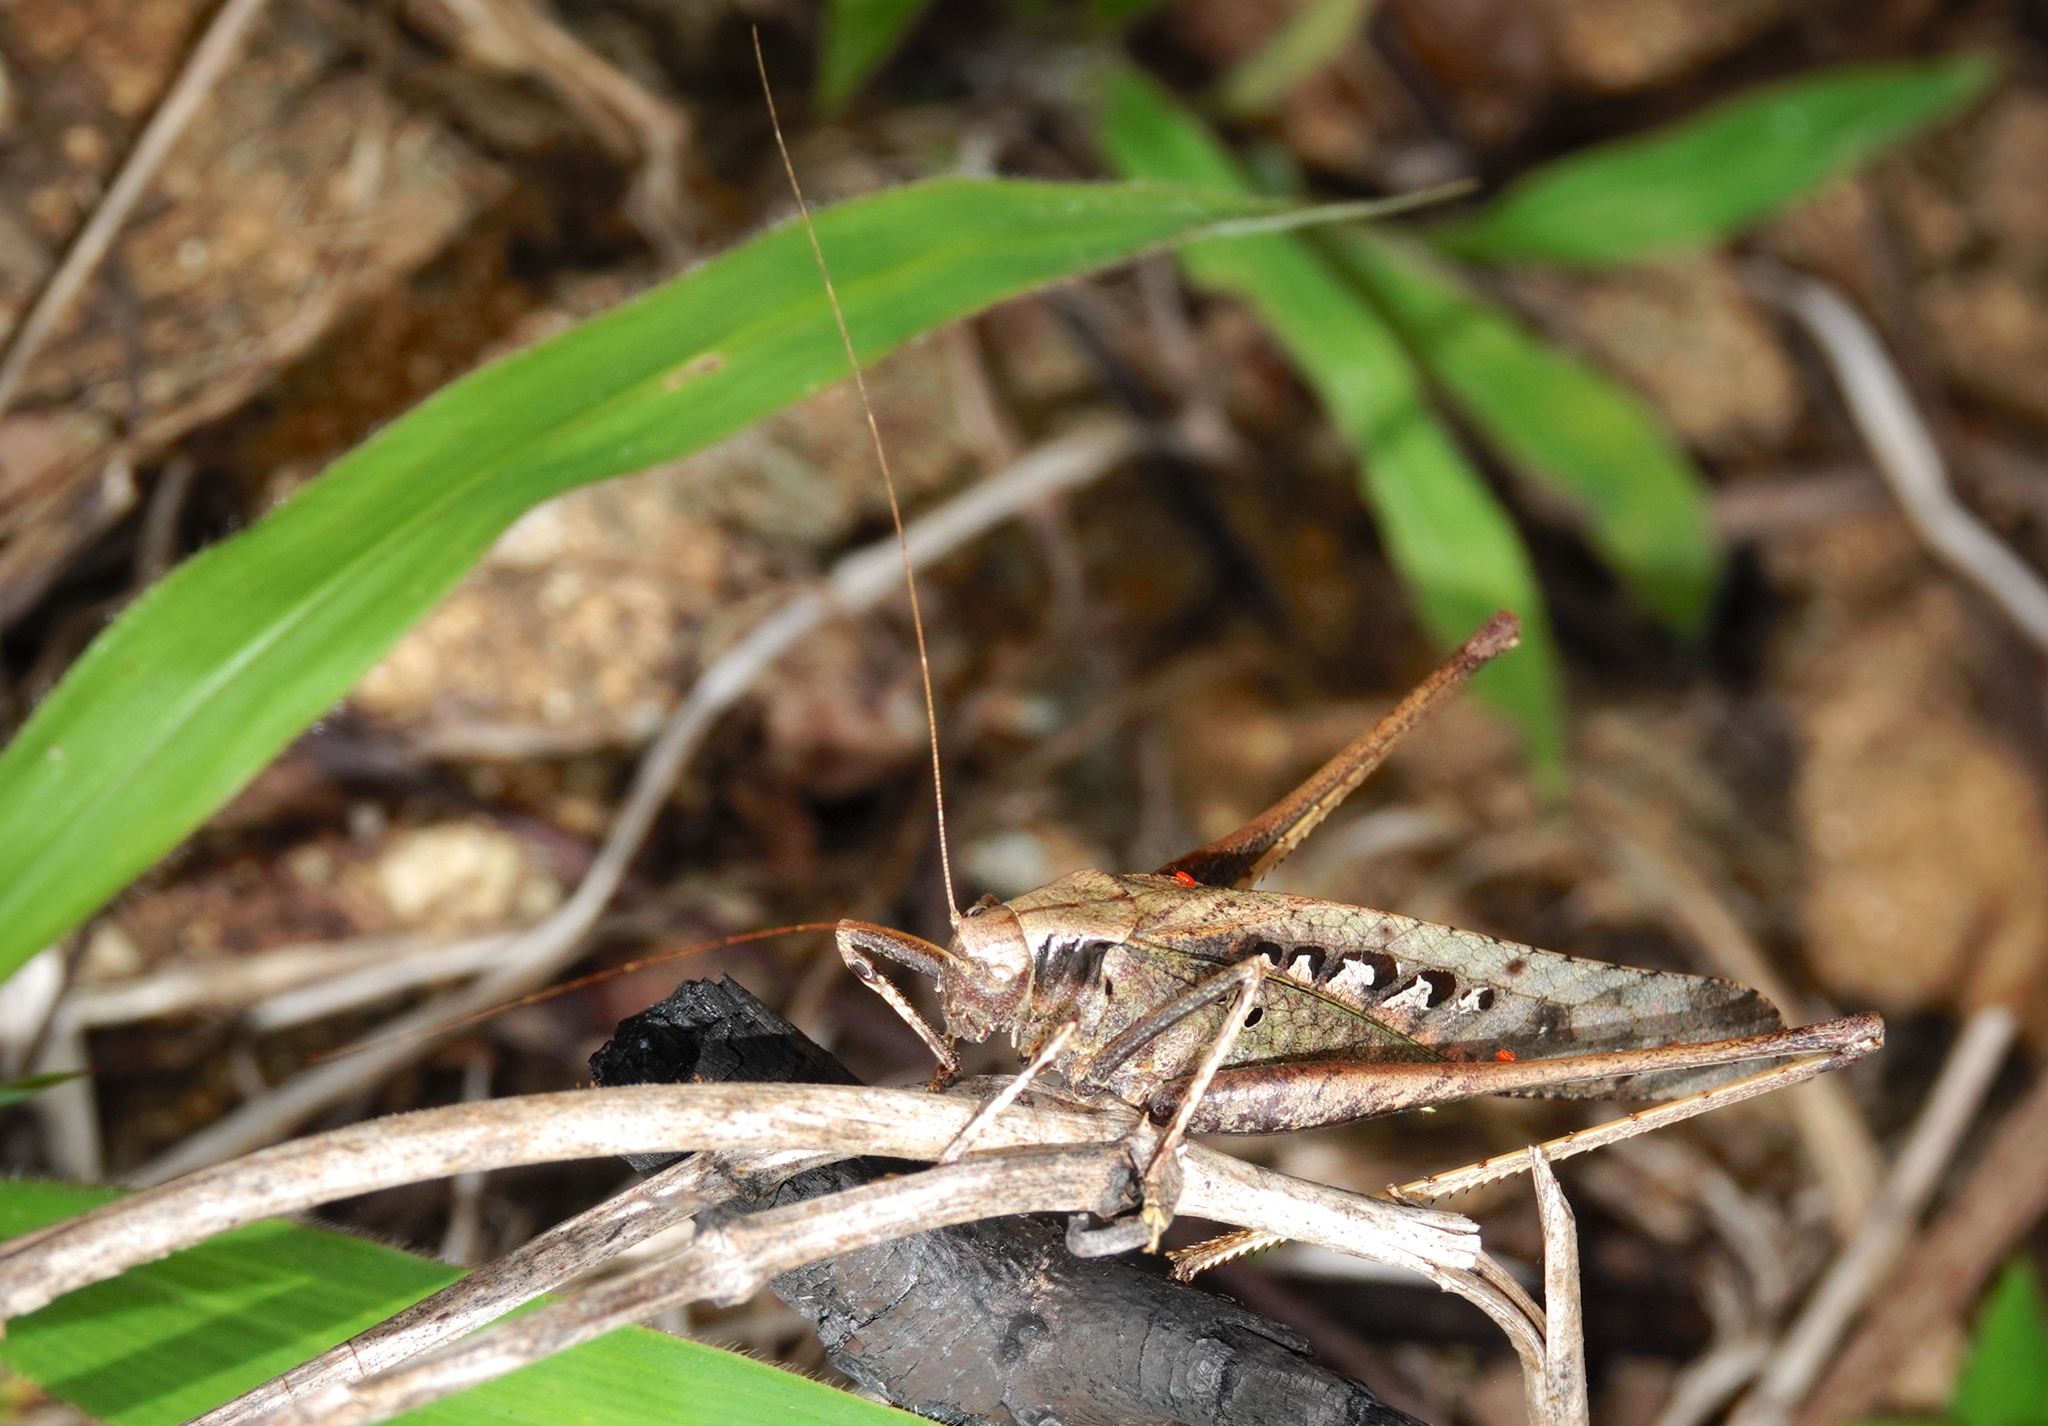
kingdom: Animalia
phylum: Arthropoda
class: Insecta
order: Orthoptera
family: Tettigoniidae
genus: Mecopoda
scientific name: Mecopoda elongata
